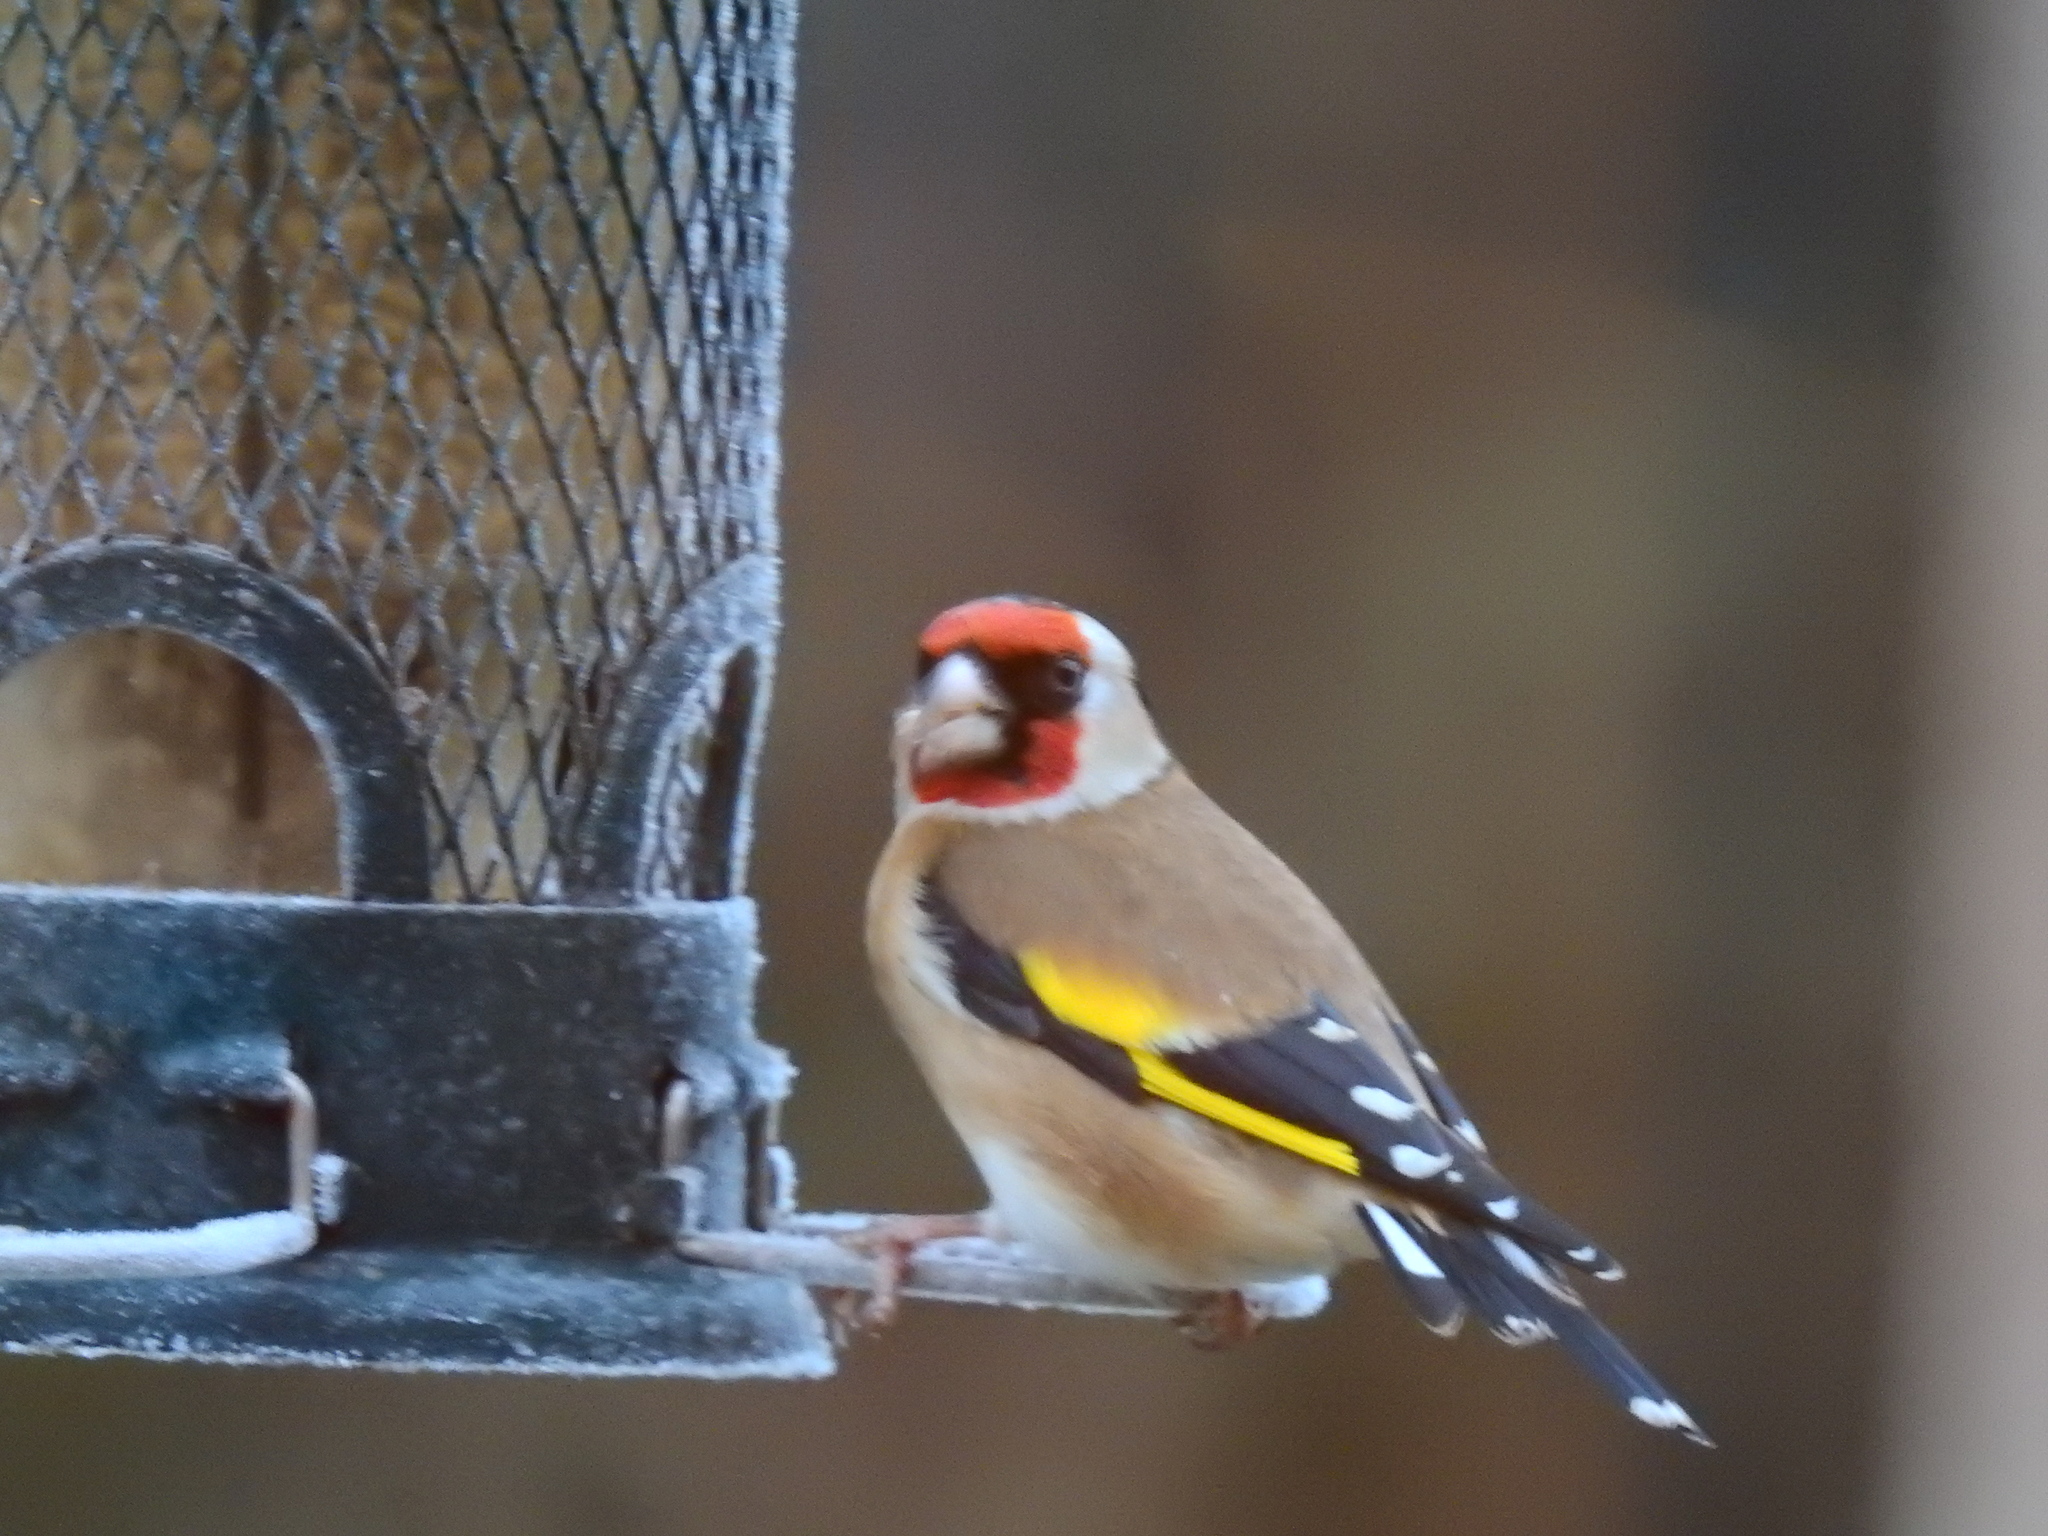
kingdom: Animalia
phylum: Chordata
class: Aves
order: Passeriformes
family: Fringillidae
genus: Carduelis
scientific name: Carduelis carduelis
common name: European goldfinch
